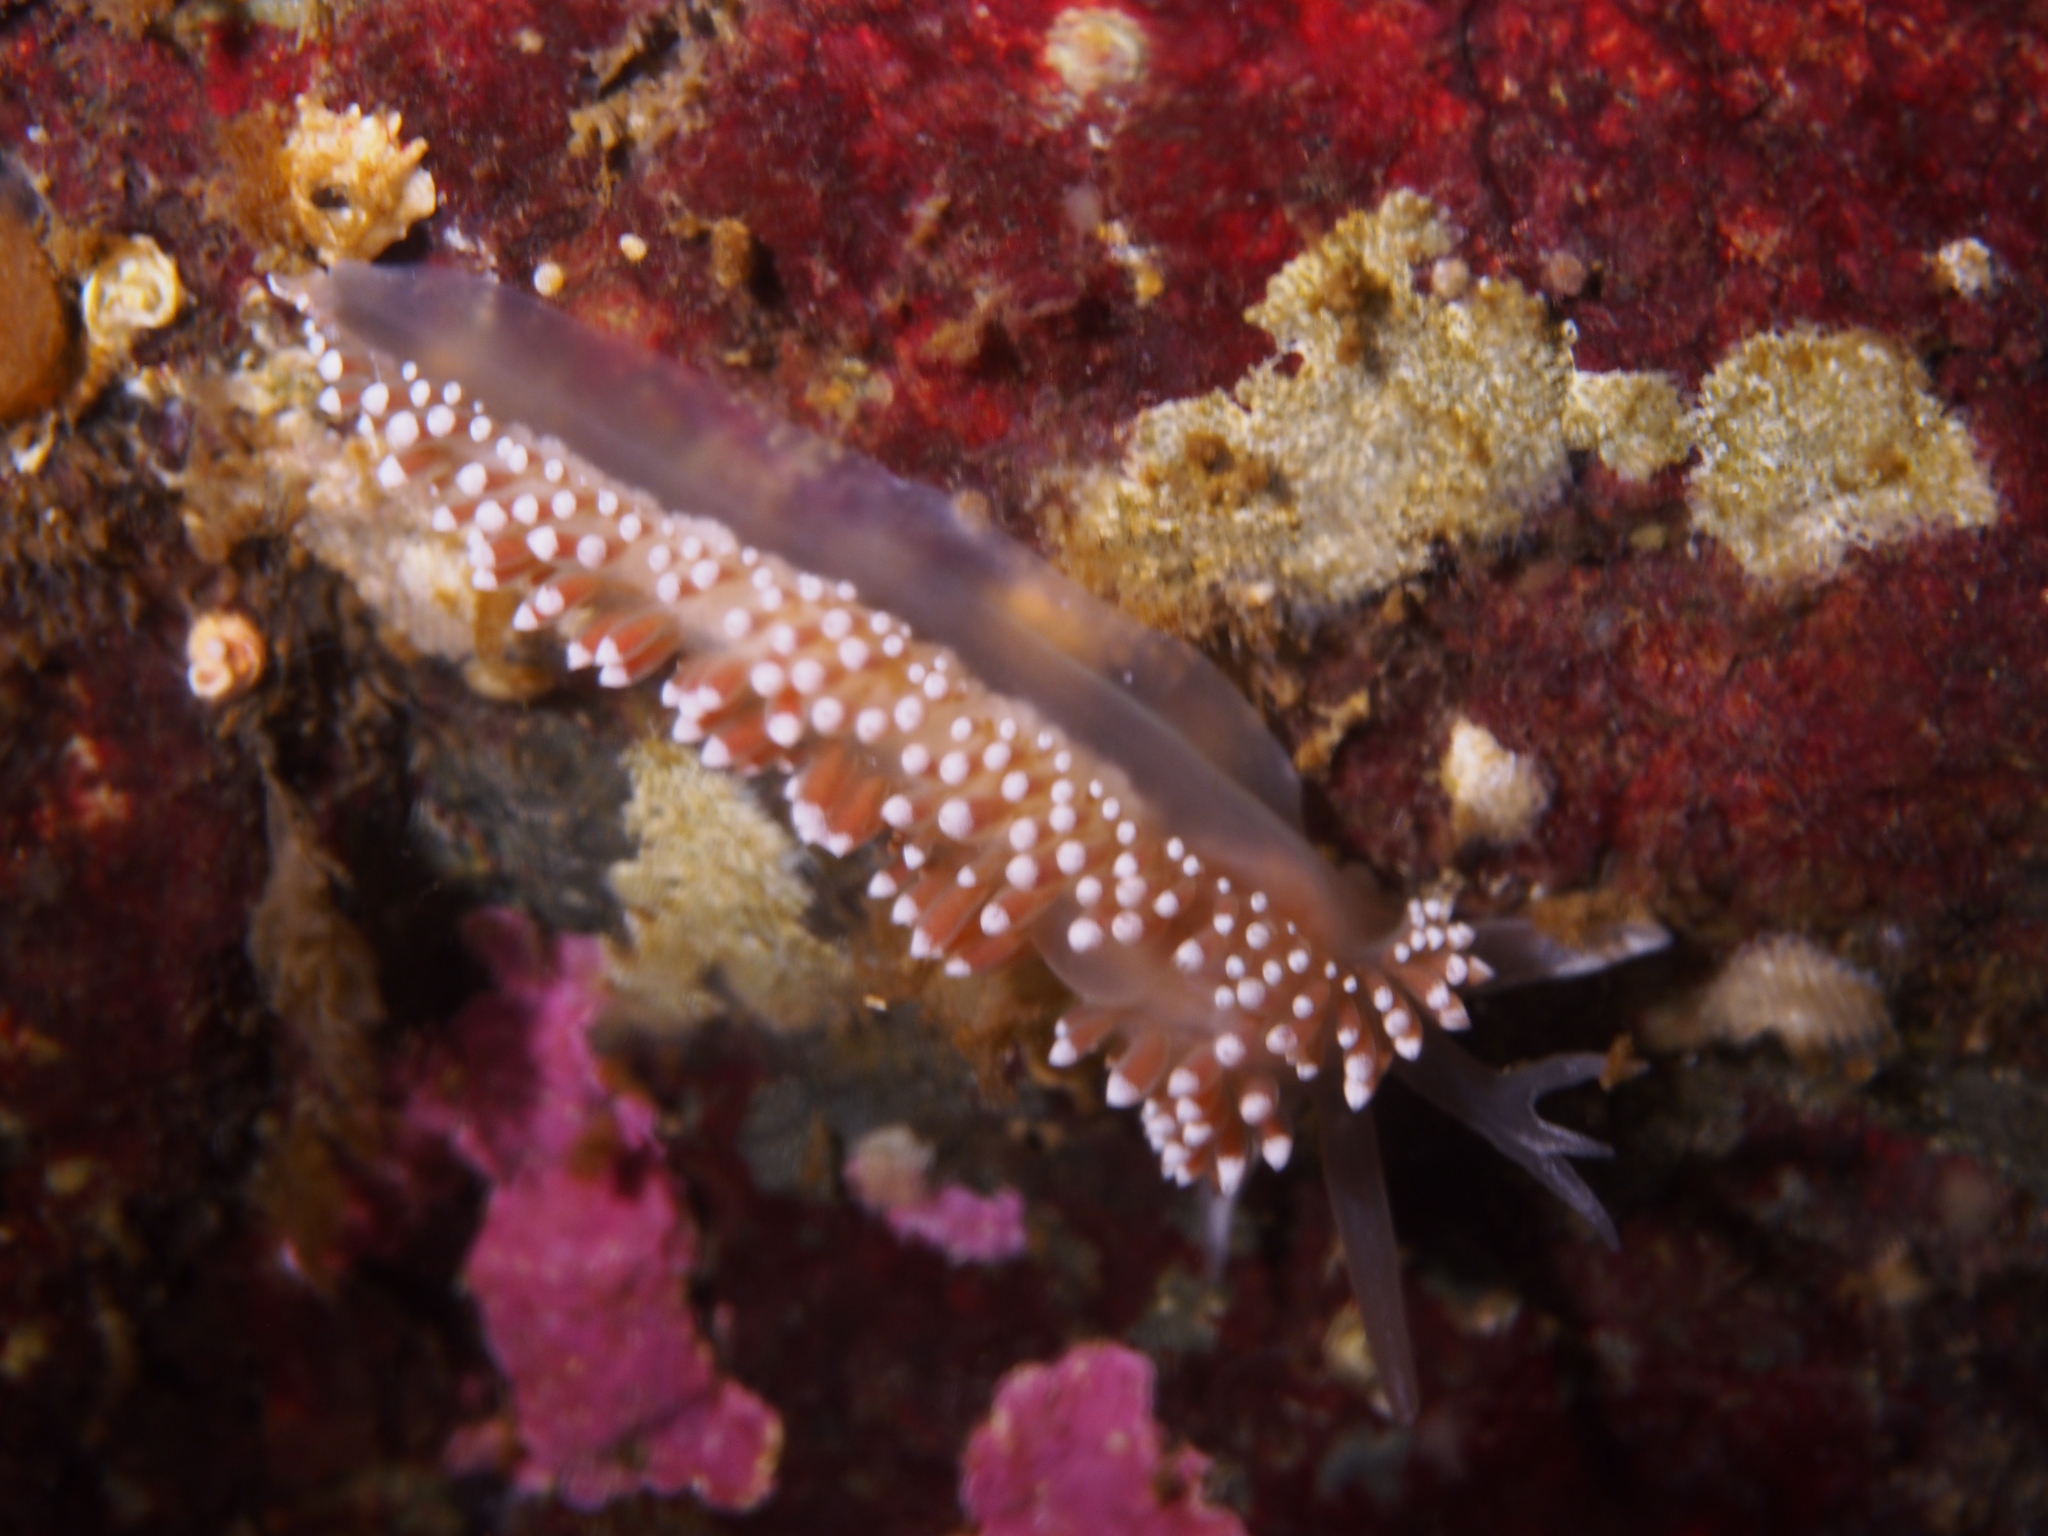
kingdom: Animalia
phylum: Mollusca
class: Gastropoda
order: Nudibranchia
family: Coryphellidae
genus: Coryphella
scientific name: Coryphella verrucosa
